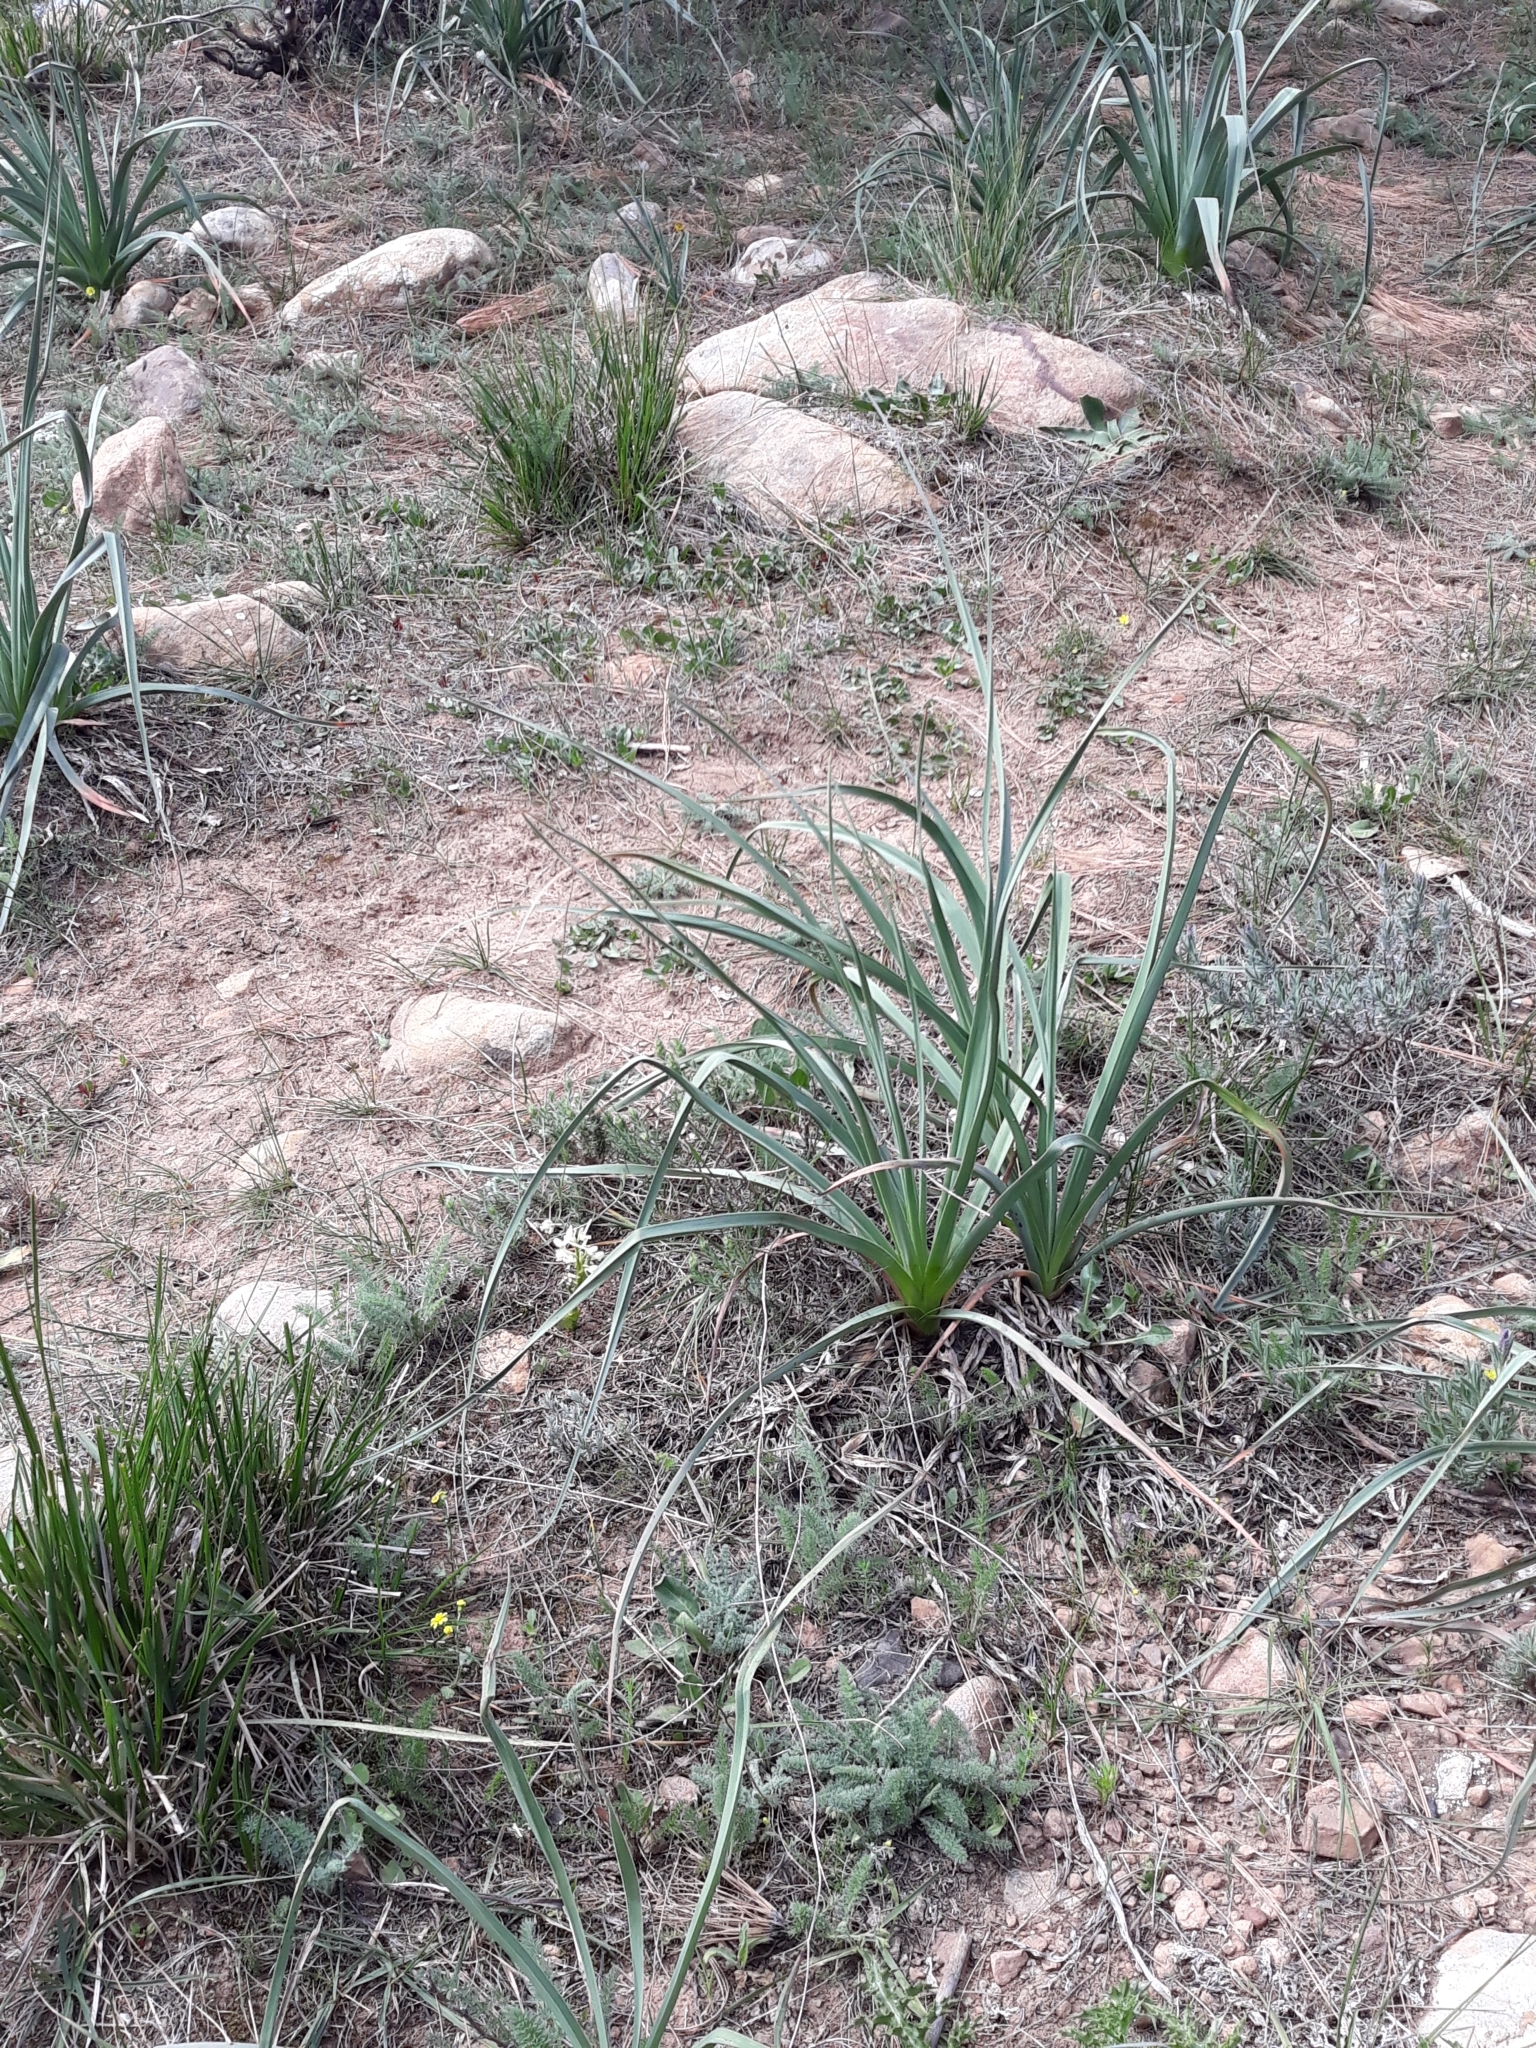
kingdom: Plantae
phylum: Tracheophyta
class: Liliopsida
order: Asparagales
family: Orchidaceae
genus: Orchis
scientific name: Orchis laeta
